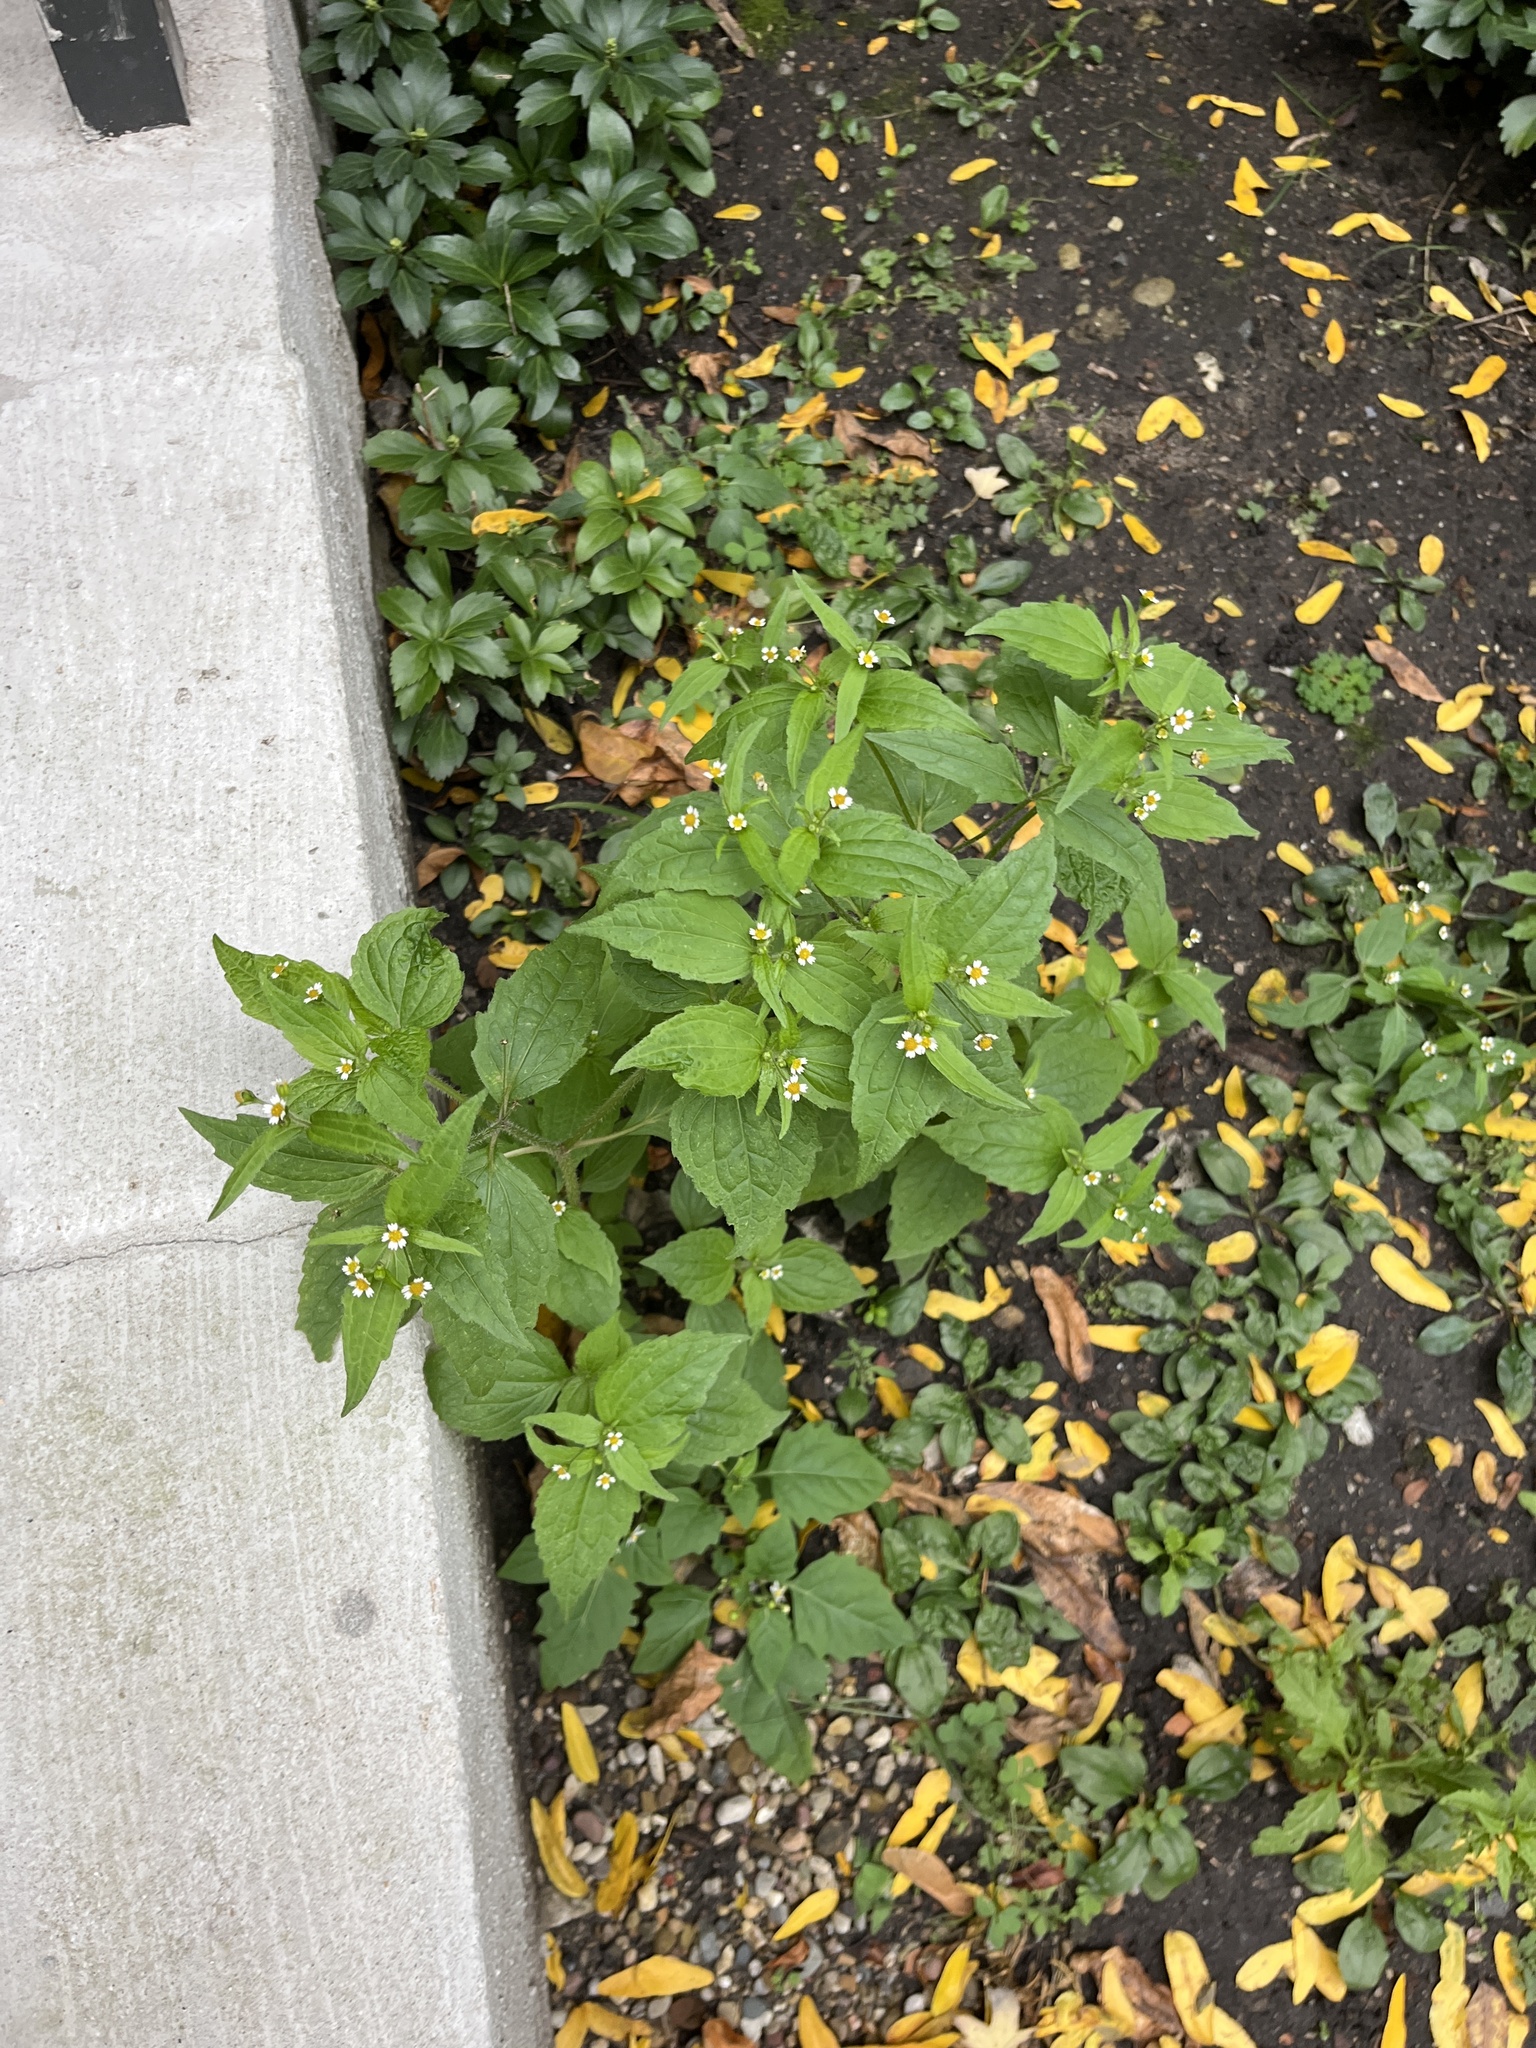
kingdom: Plantae
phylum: Tracheophyta
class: Magnoliopsida
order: Asterales
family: Asteraceae
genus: Galinsoga
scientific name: Galinsoga quadriradiata
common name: Shaggy soldier
